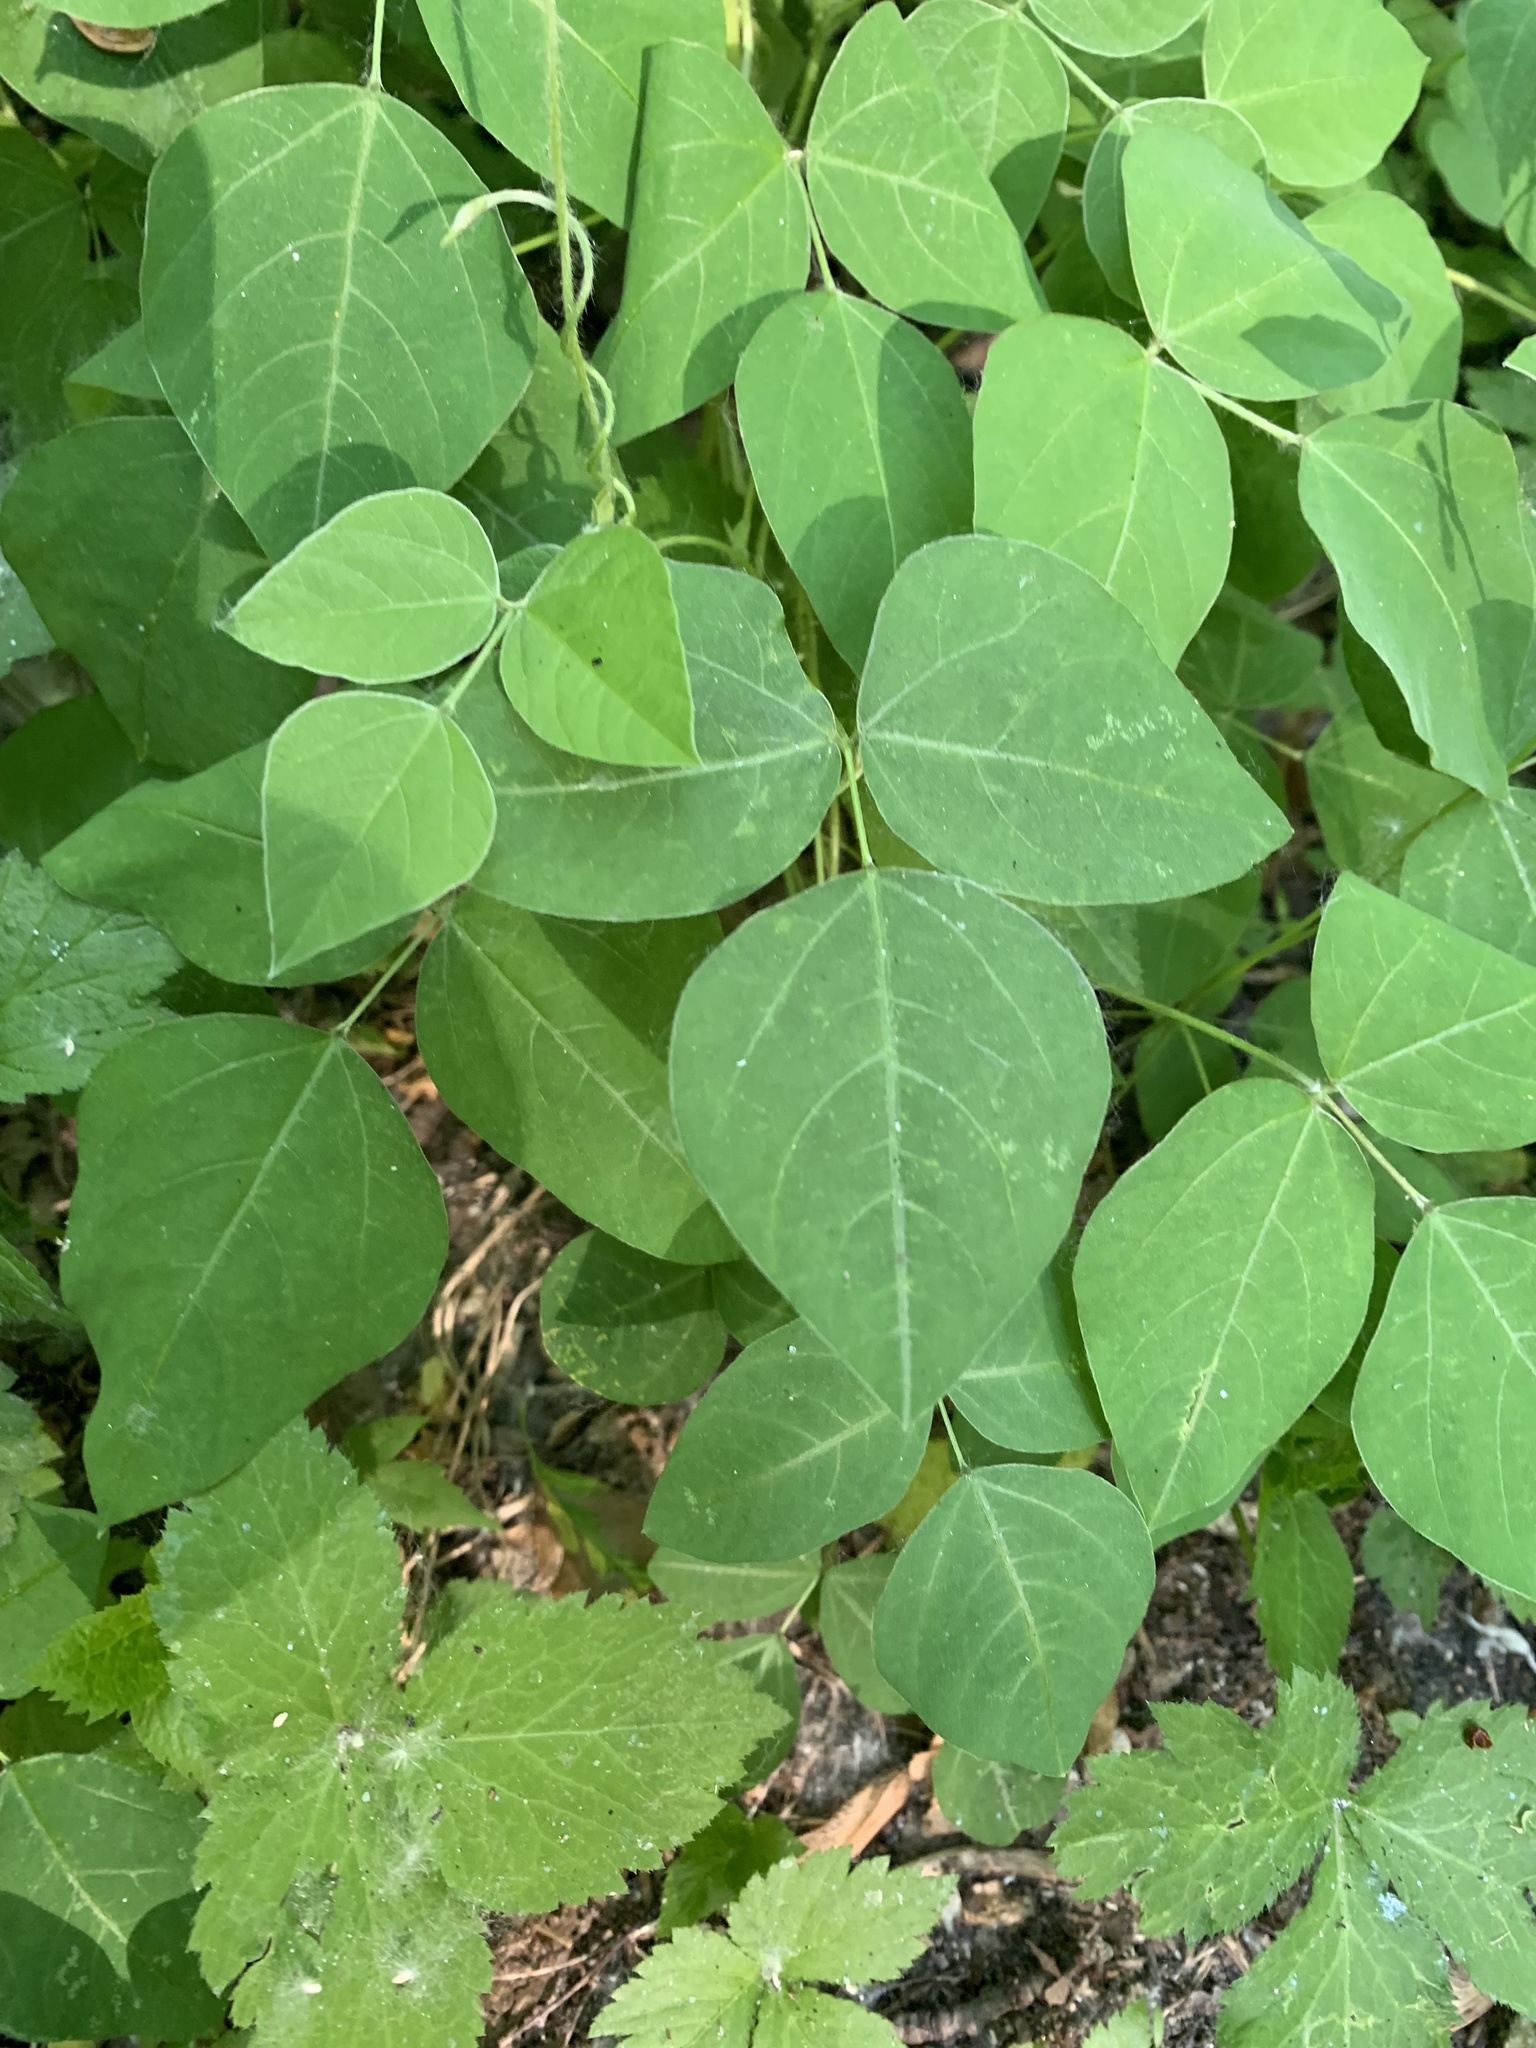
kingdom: Plantae
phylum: Tracheophyta
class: Magnoliopsida
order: Fabales
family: Fabaceae
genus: Amphicarpaea
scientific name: Amphicarpaea bracteata
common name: American hog peanut
